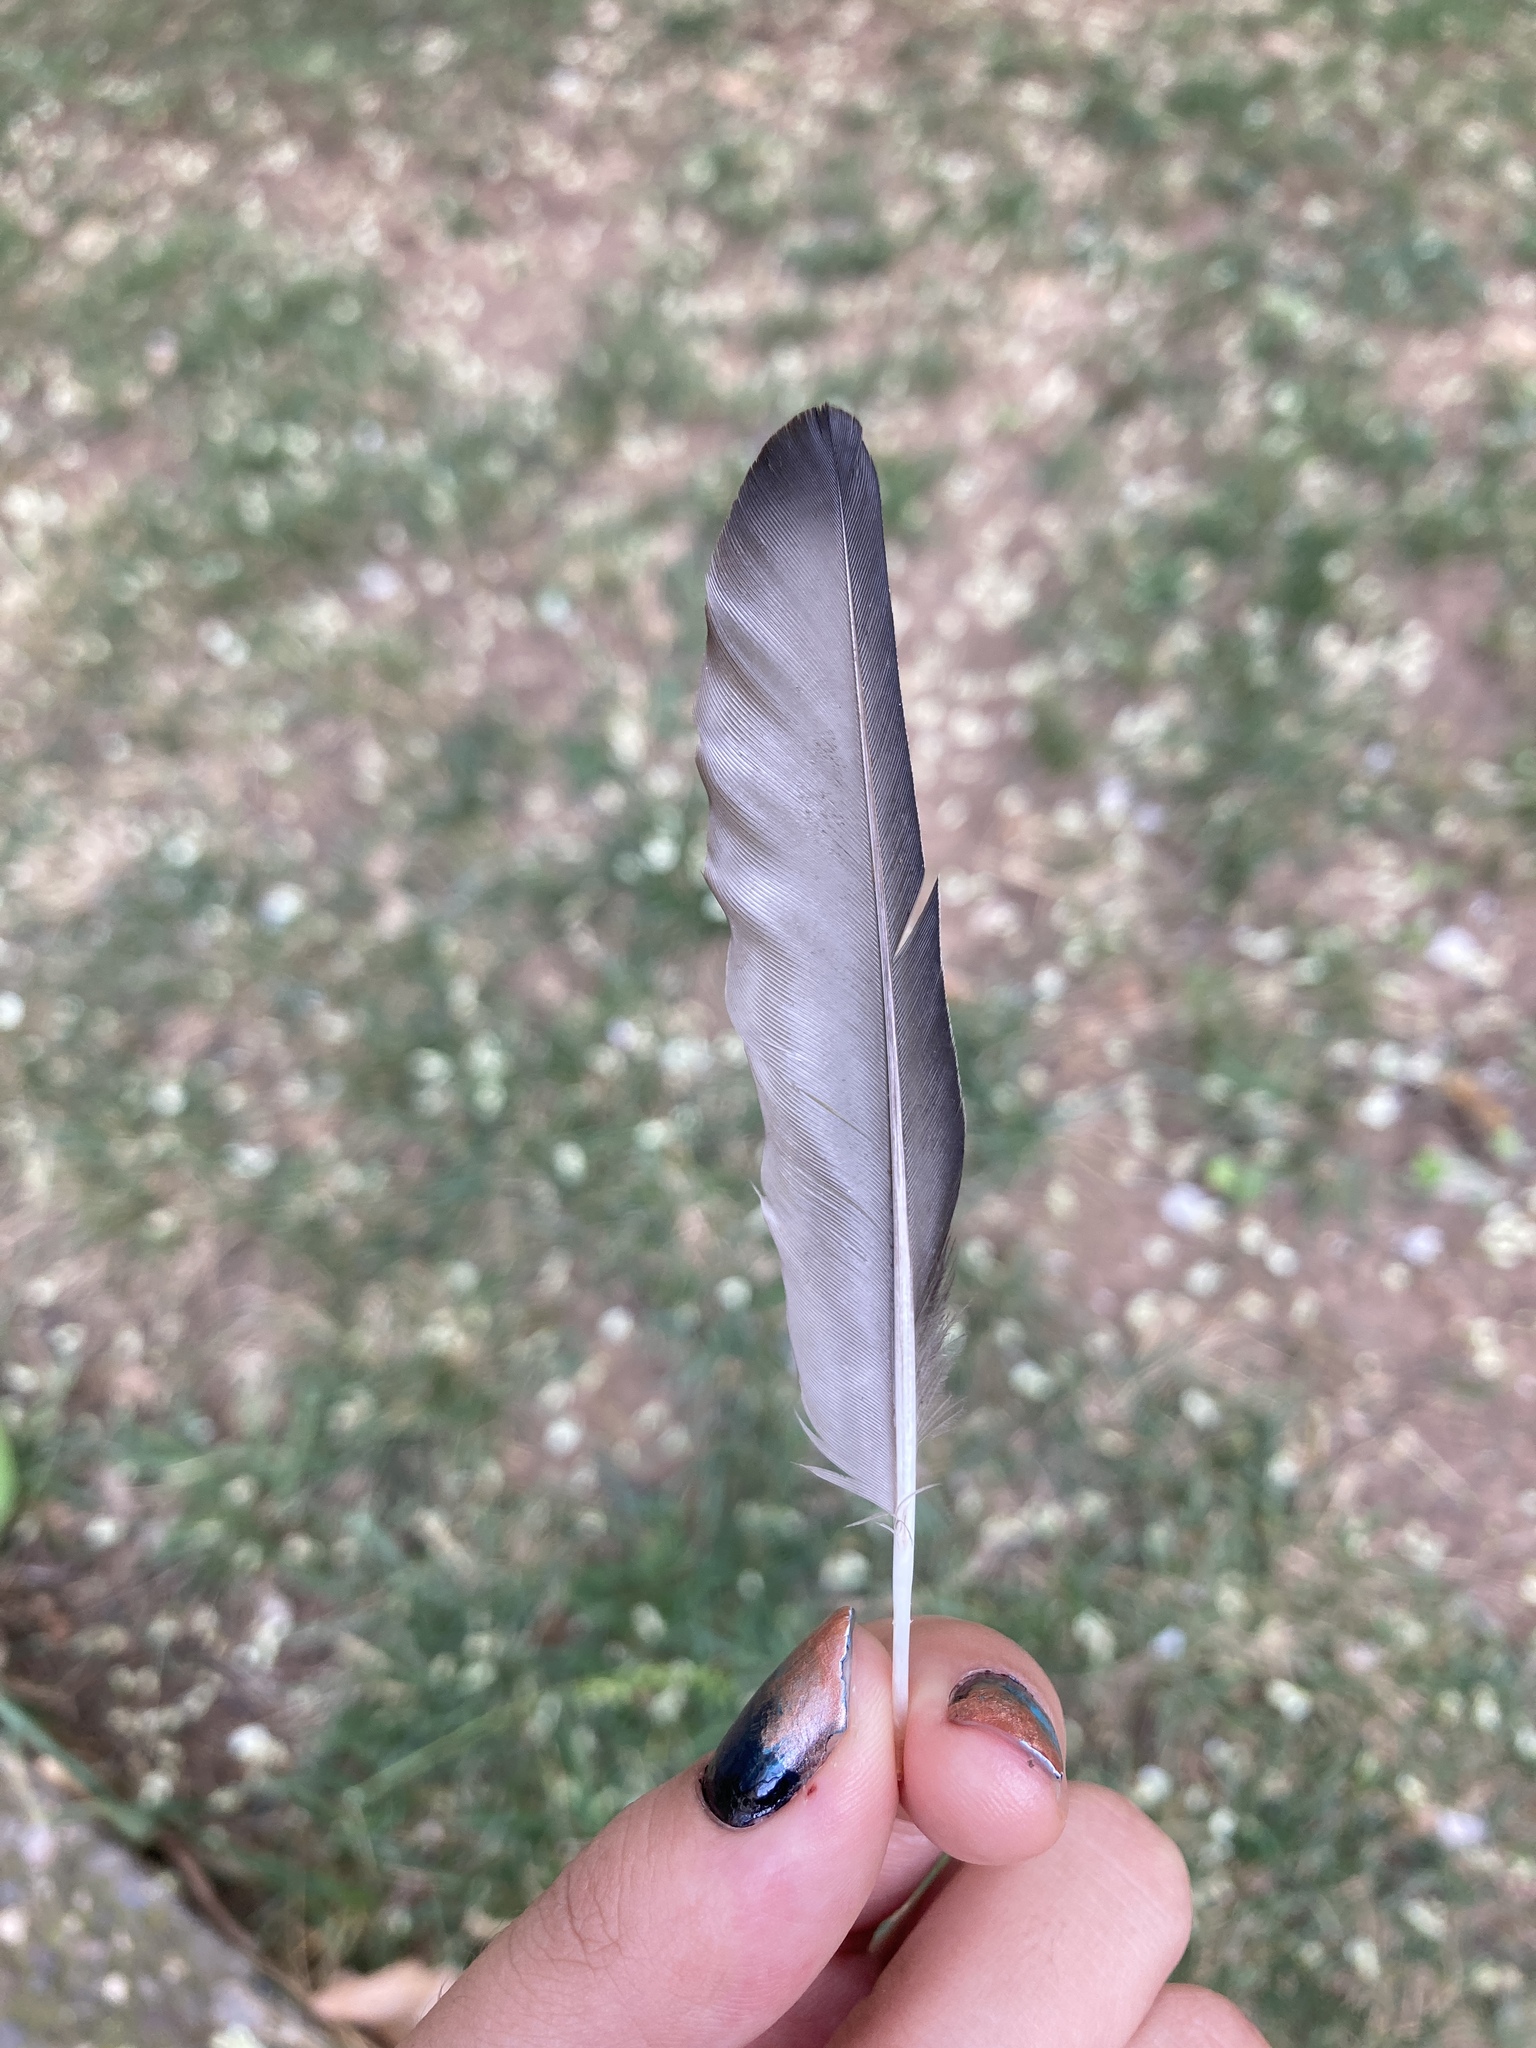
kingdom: Animalia
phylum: Chordata
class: Aves
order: Passeriformes
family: Sturnidae
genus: Sturnus
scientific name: Sturnus unicolor
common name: Spotless starling
